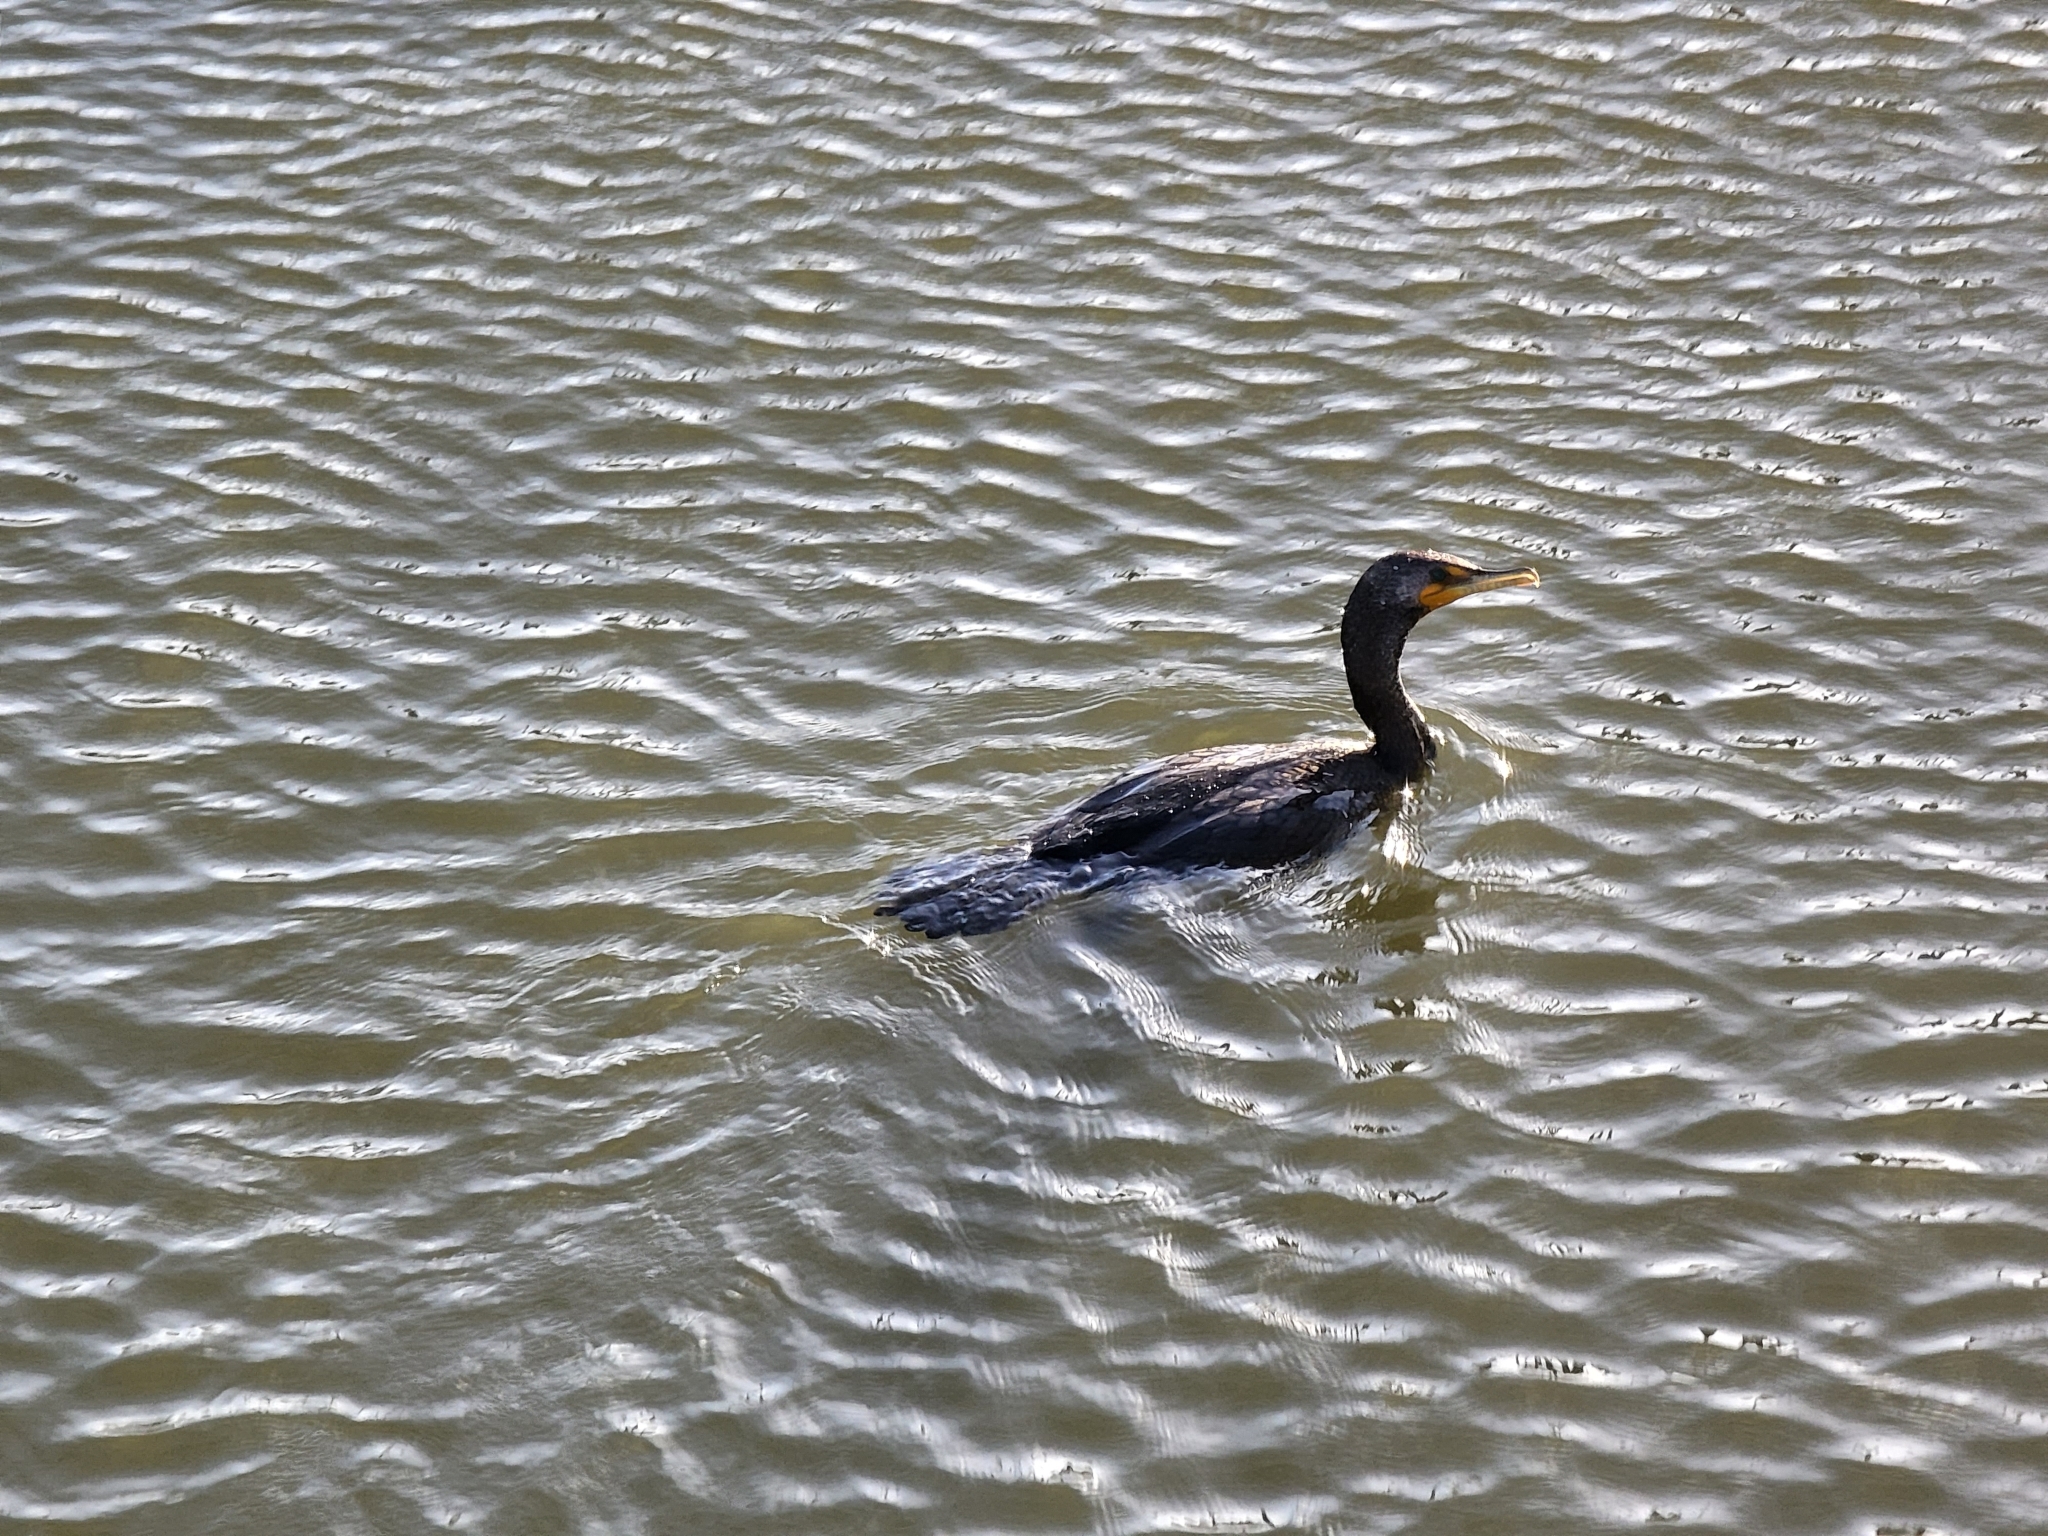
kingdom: Animalia
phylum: Chordata
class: Aves
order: Suliformes
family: Phalacrocoracidae
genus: Phalacrocorax
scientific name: Phalacrocorax auritus
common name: Double-crested cormorant
